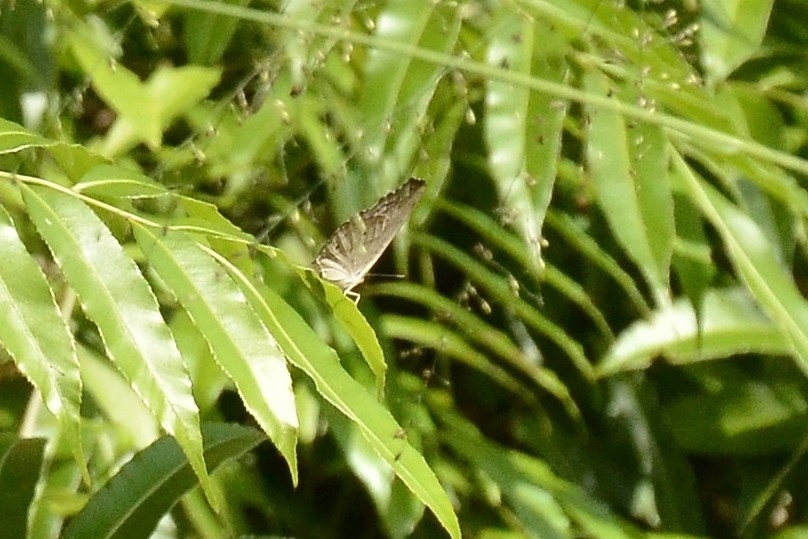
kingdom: Animalia
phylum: Arthropoda
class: Insecta
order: Lepidoptera
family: Nymphalidae
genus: Junonia
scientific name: Junonia atlites
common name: Grey pansy
